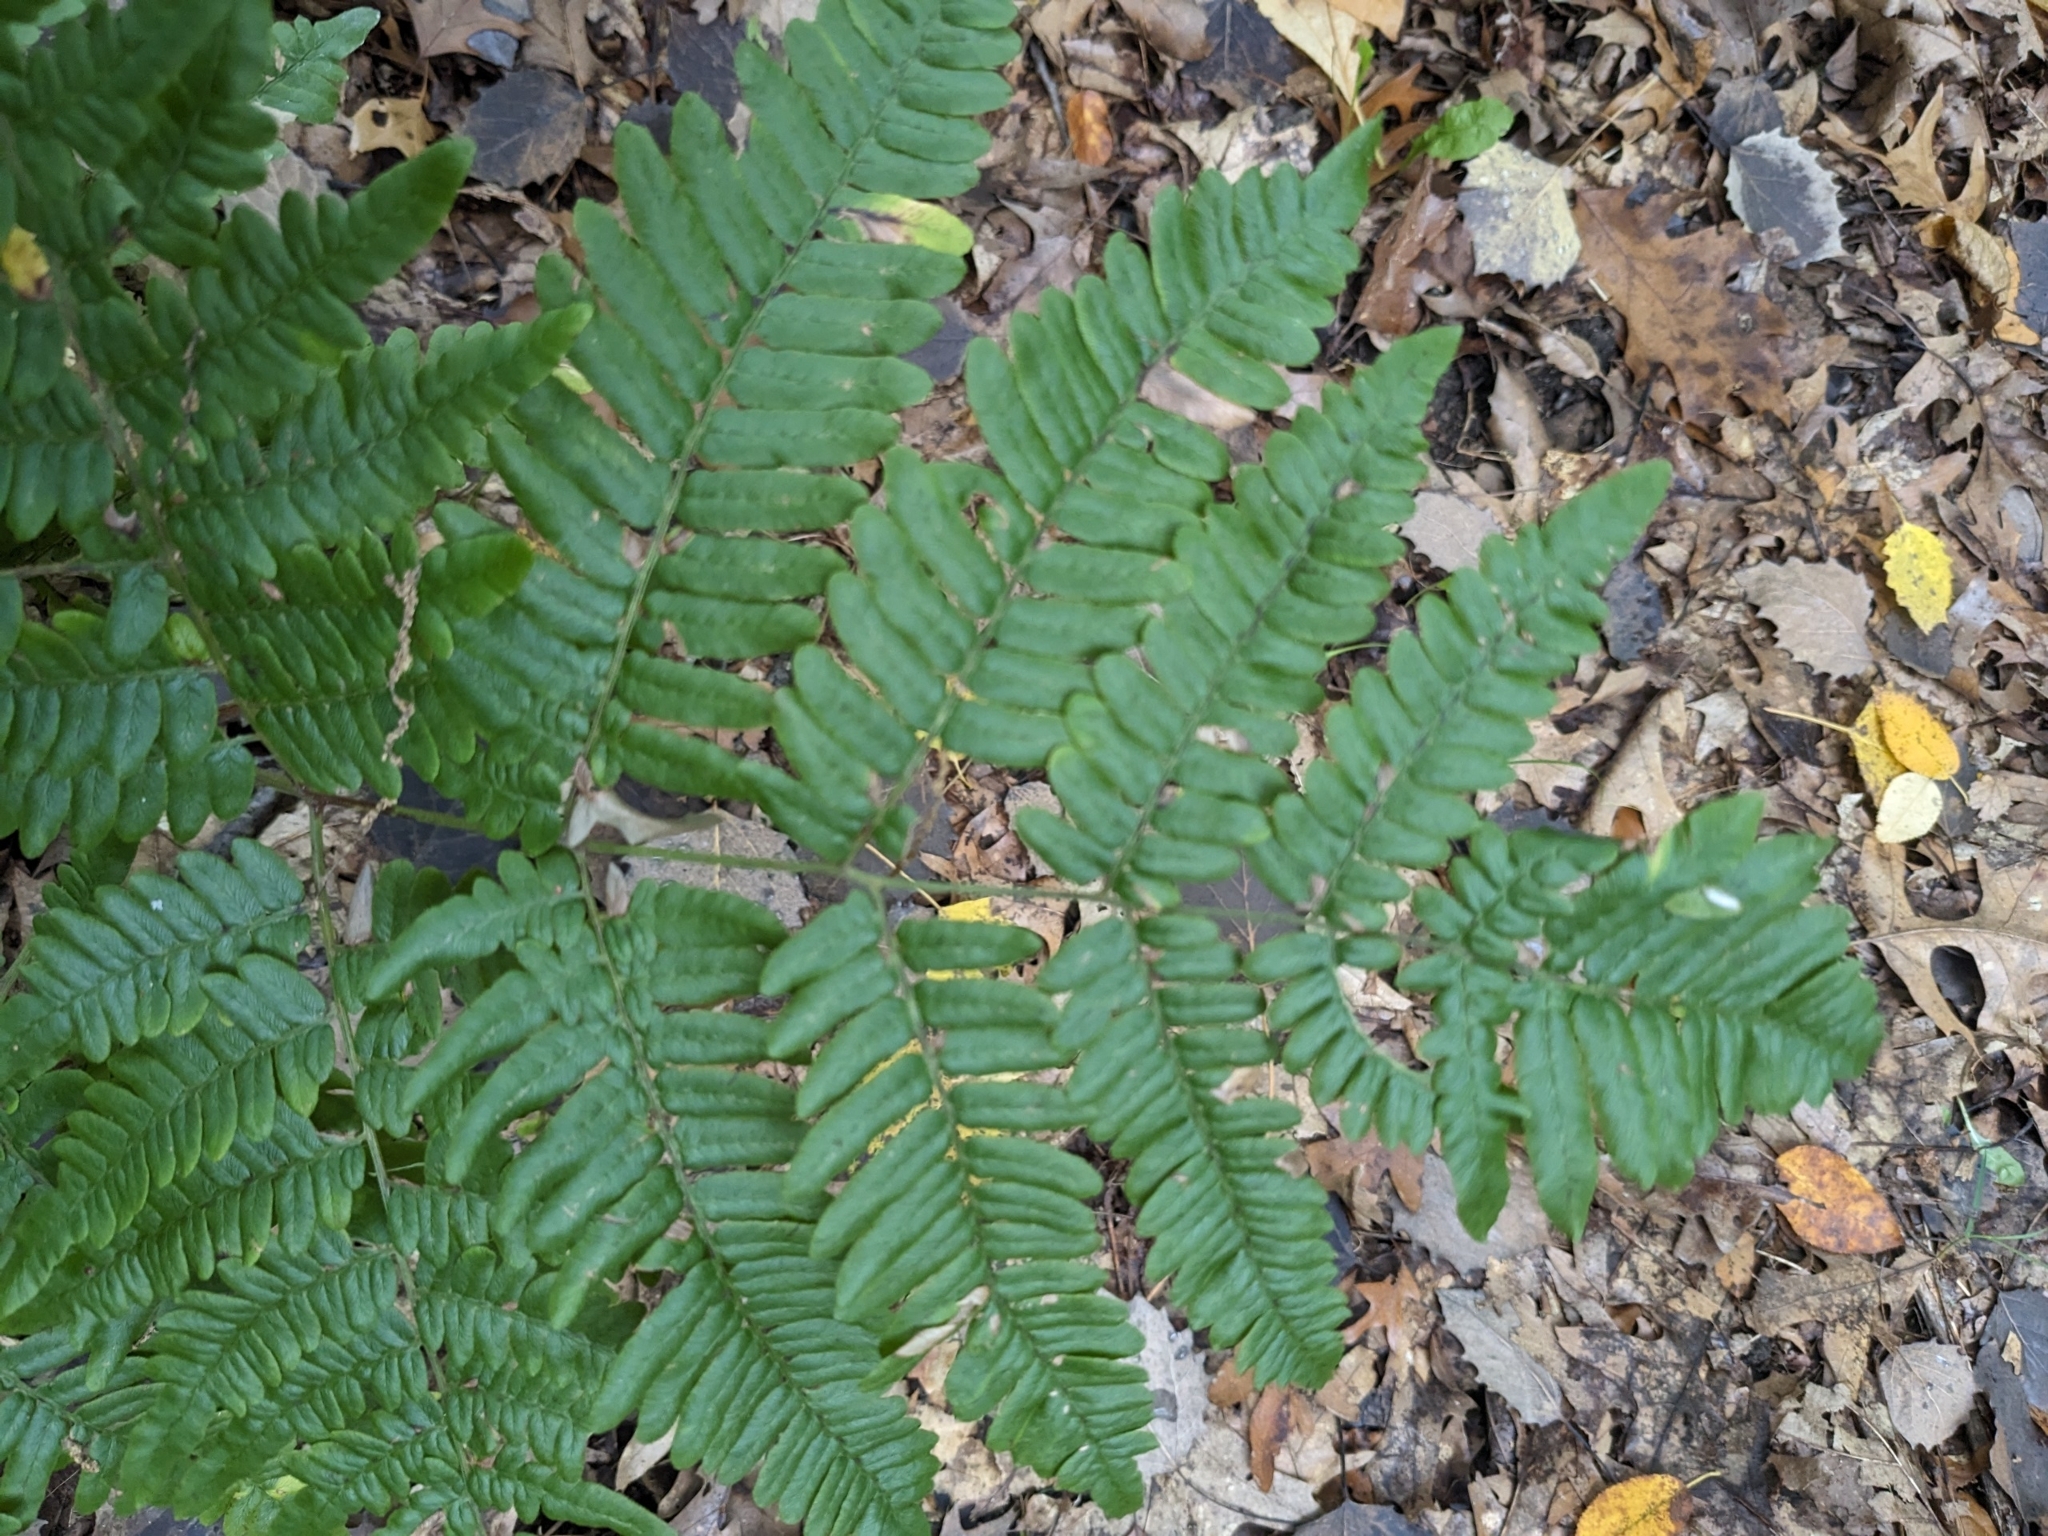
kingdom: Plantae
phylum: Tracheophyta
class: Polypodiopsida
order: Polypodiales
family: Dennstaedtiaceae
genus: Pteridium
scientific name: Pteridium aquilinum
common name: Bracken
